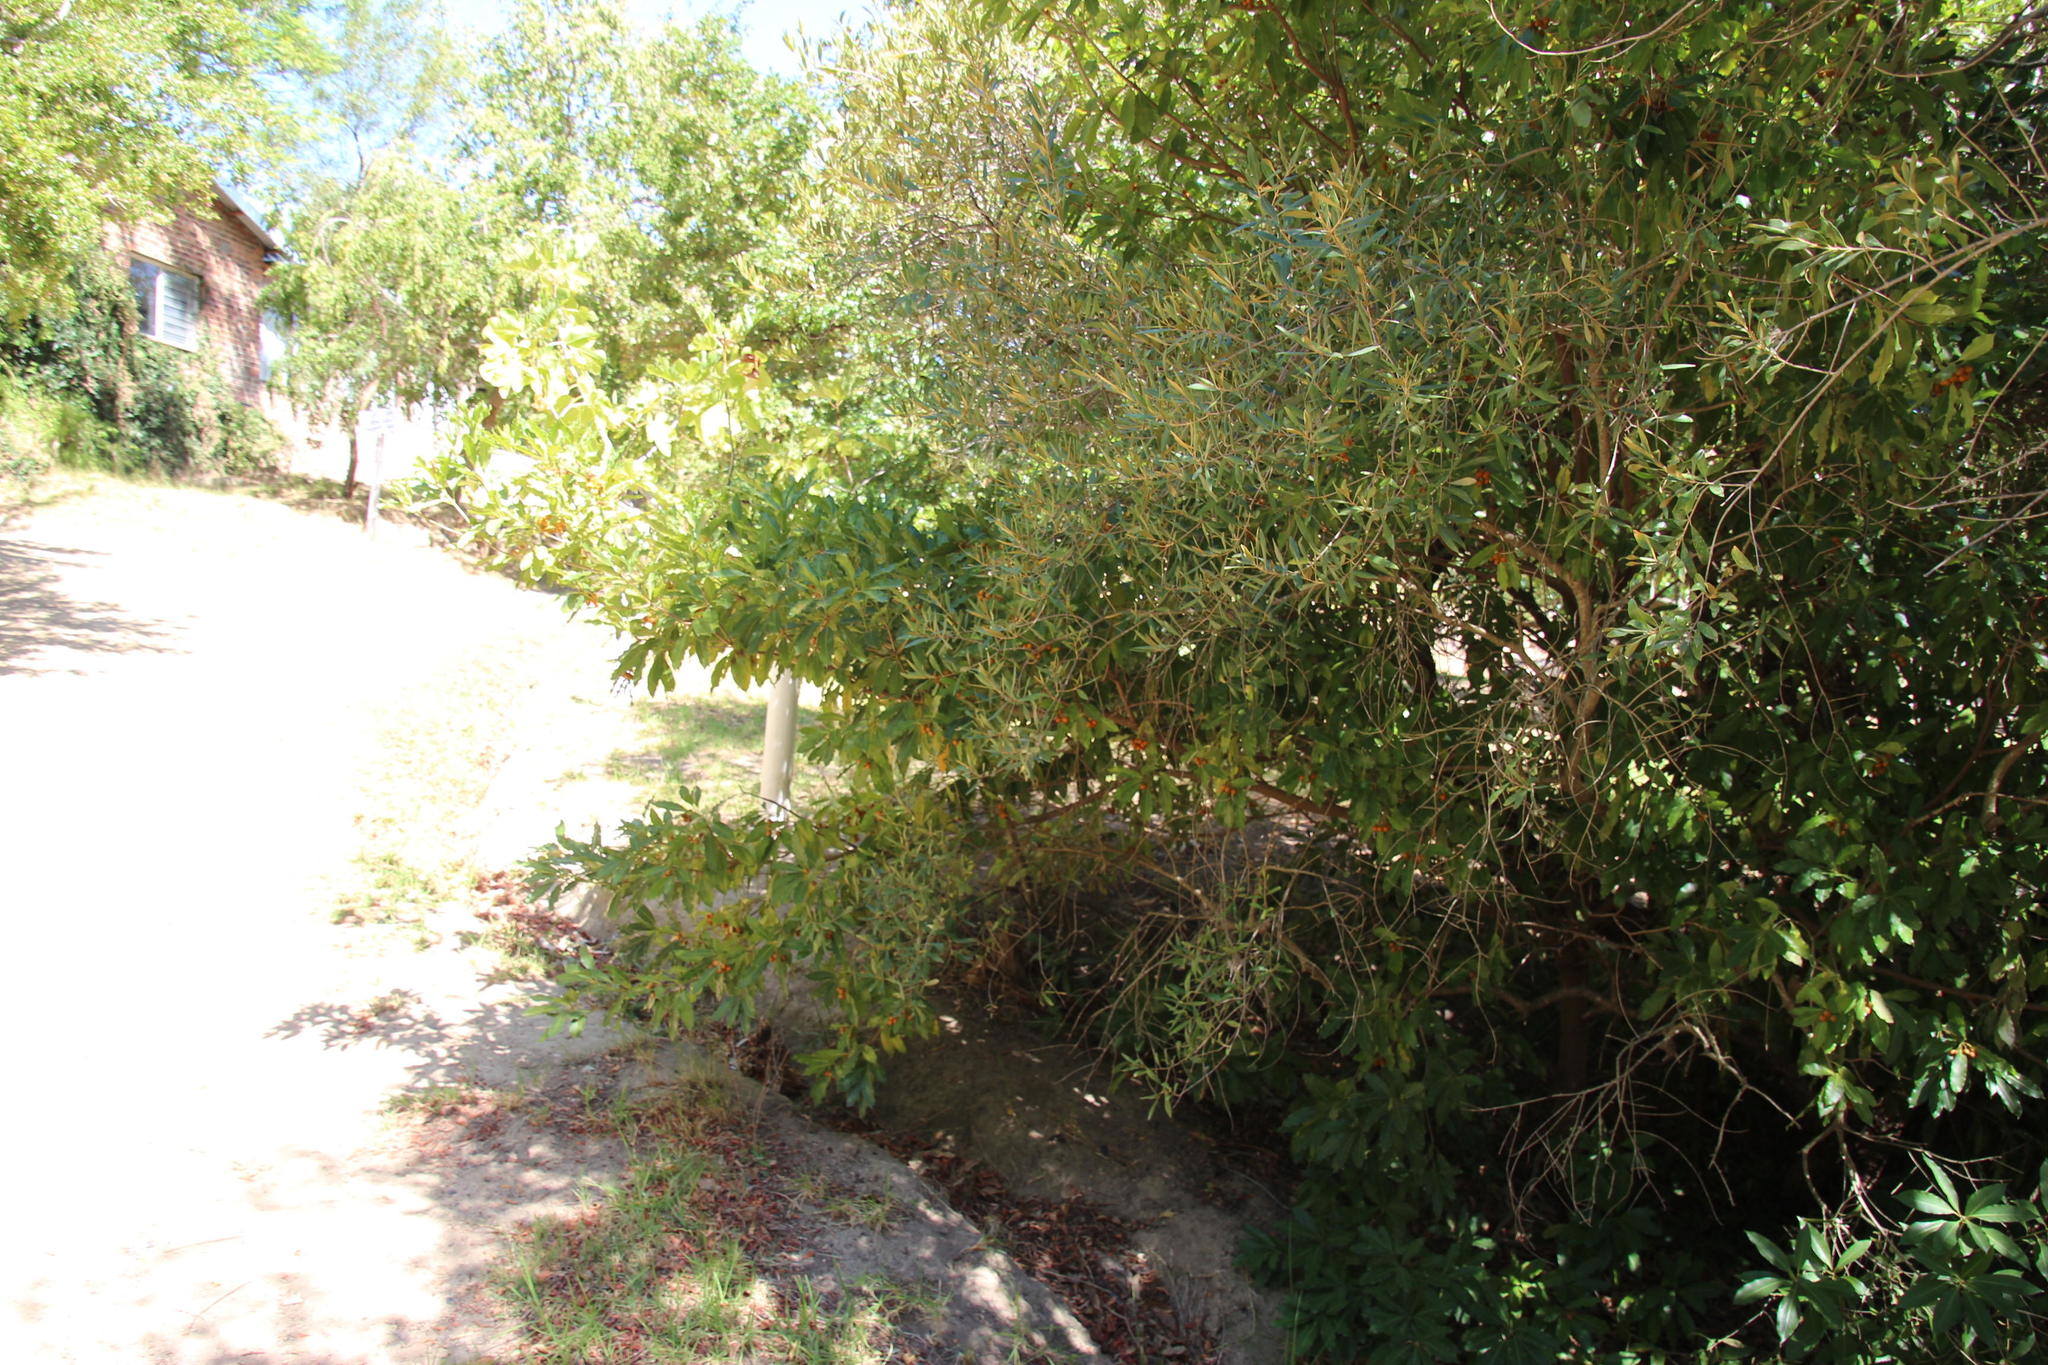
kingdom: Plantae
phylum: Tracheophyta
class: Magnoliopsida
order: Apiales
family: Pittosporaceae
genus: Pittosporum
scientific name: Pittosporum undulatum
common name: Australian cheesewood
